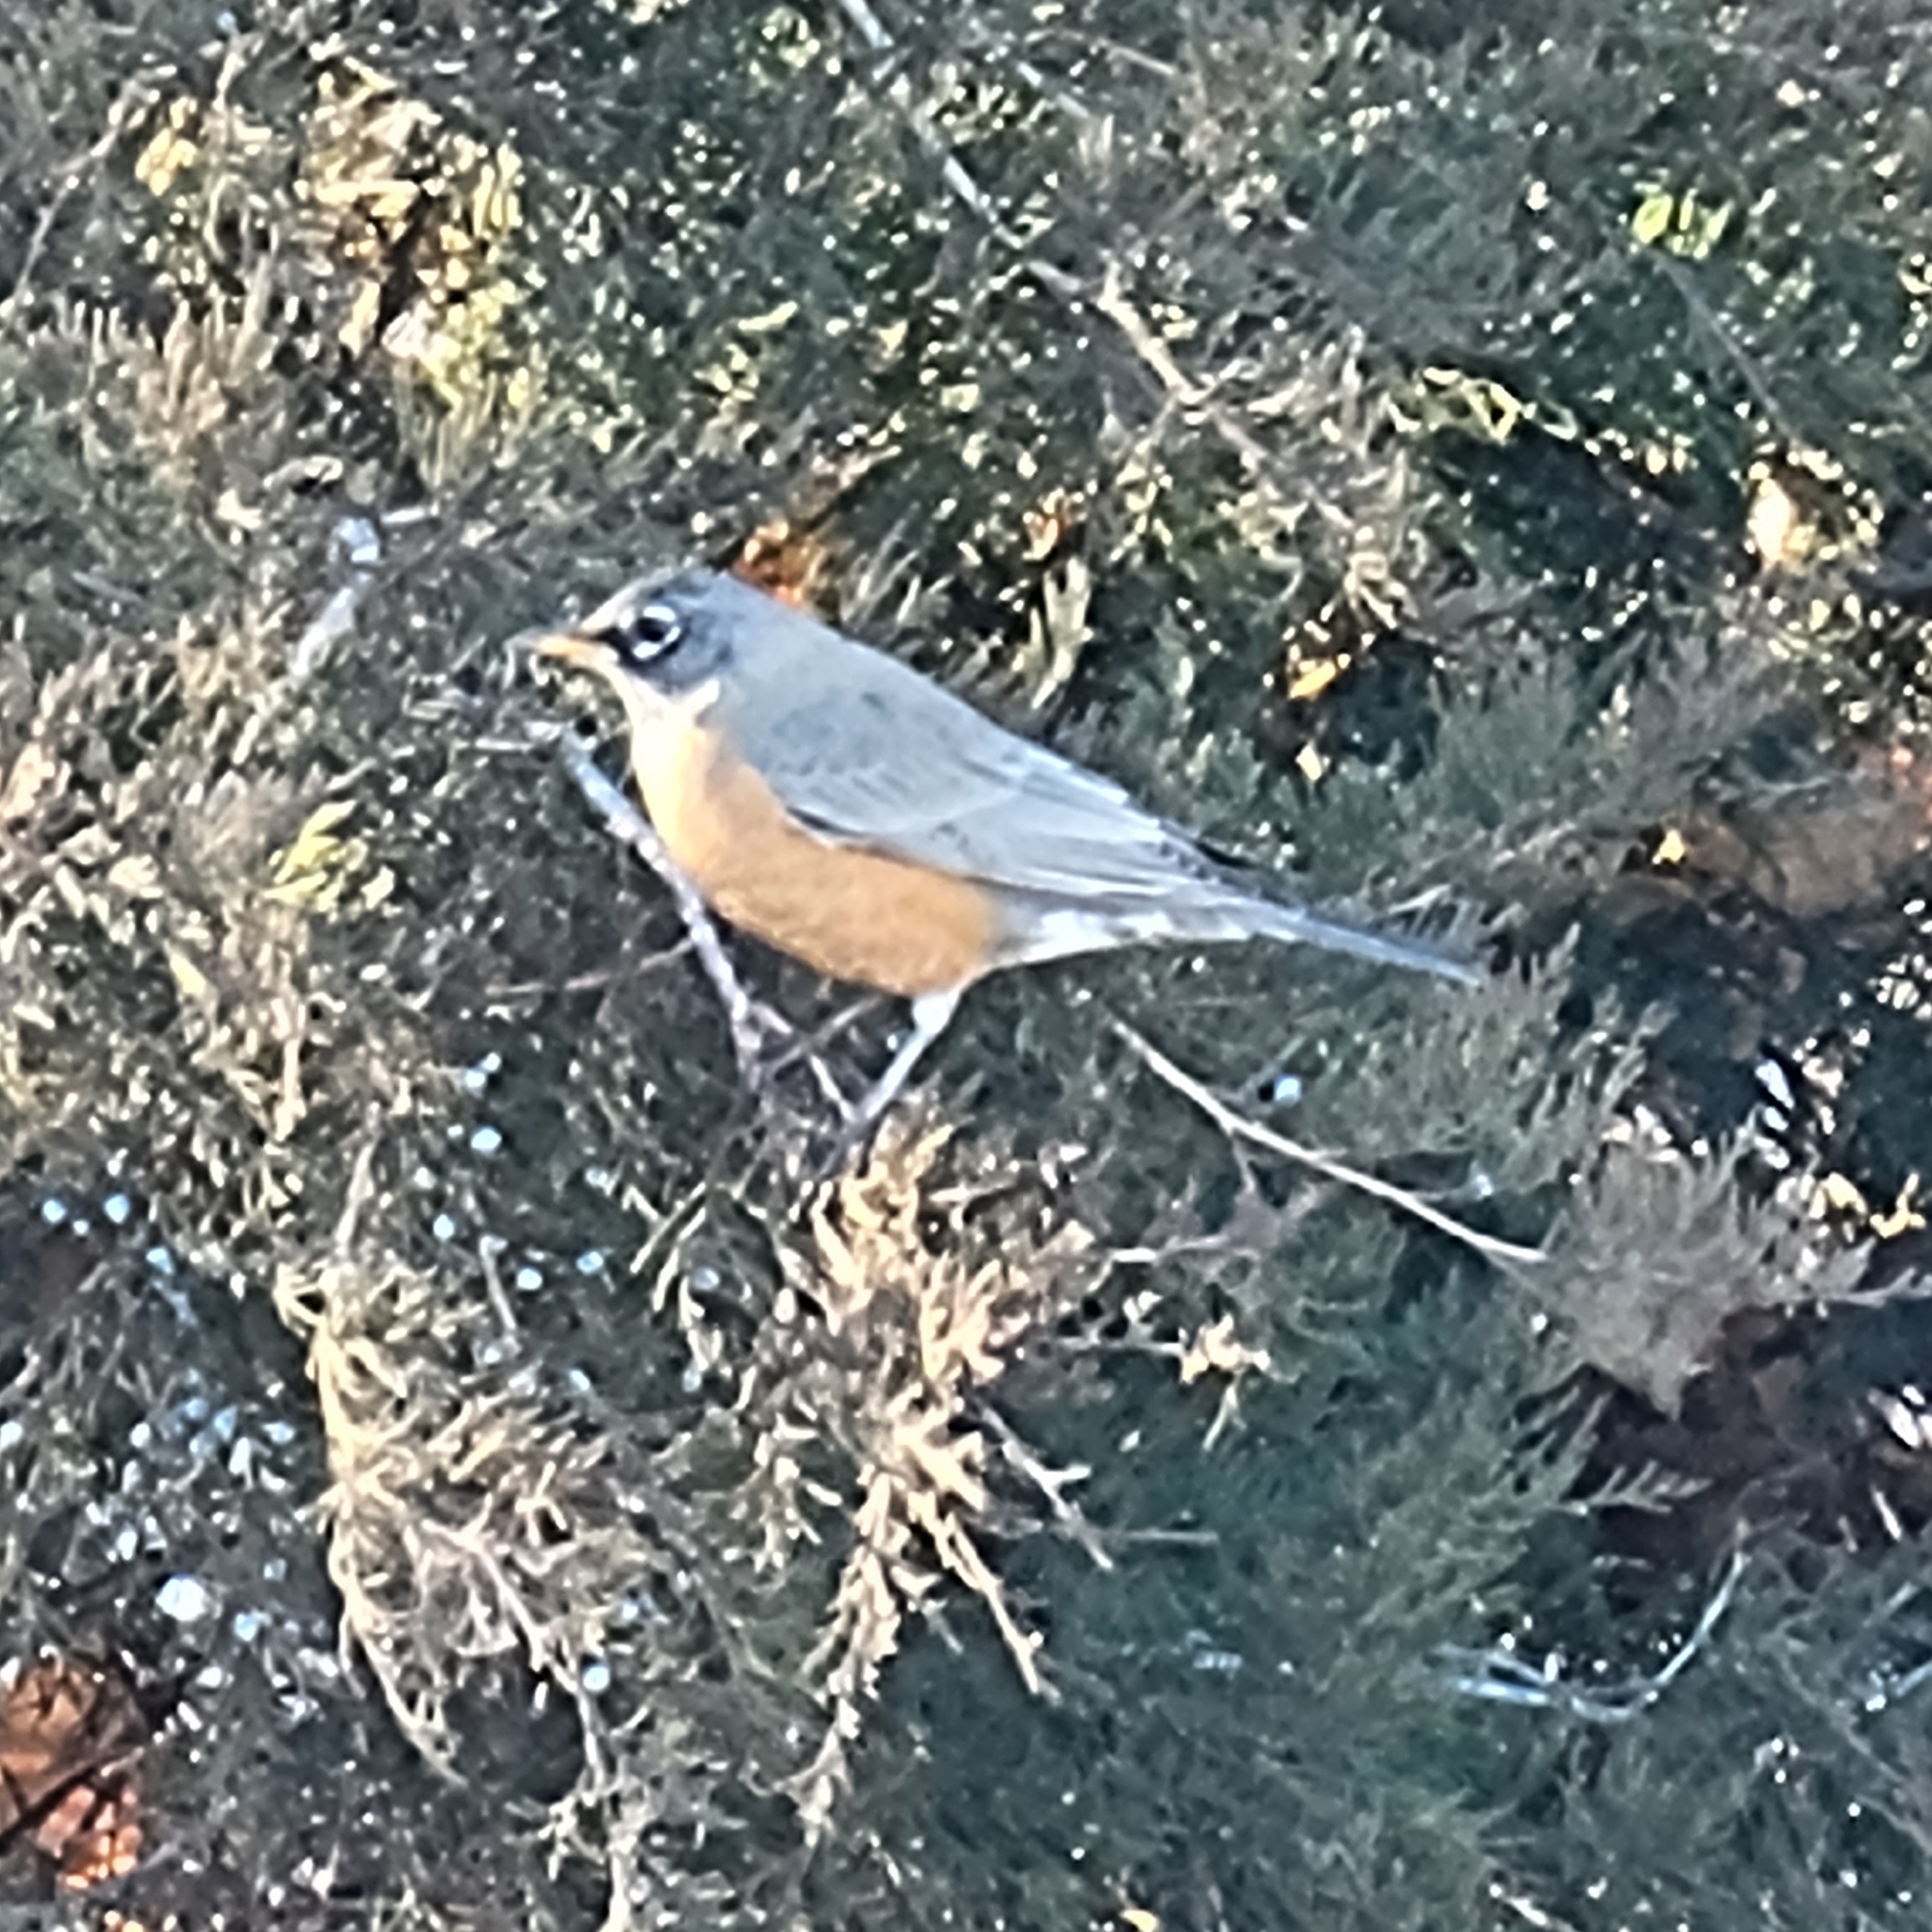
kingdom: Animalia
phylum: Chordata
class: Aves
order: Passeriformes
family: Turdidae
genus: Turdus
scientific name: Turdus migratorius
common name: American robin
